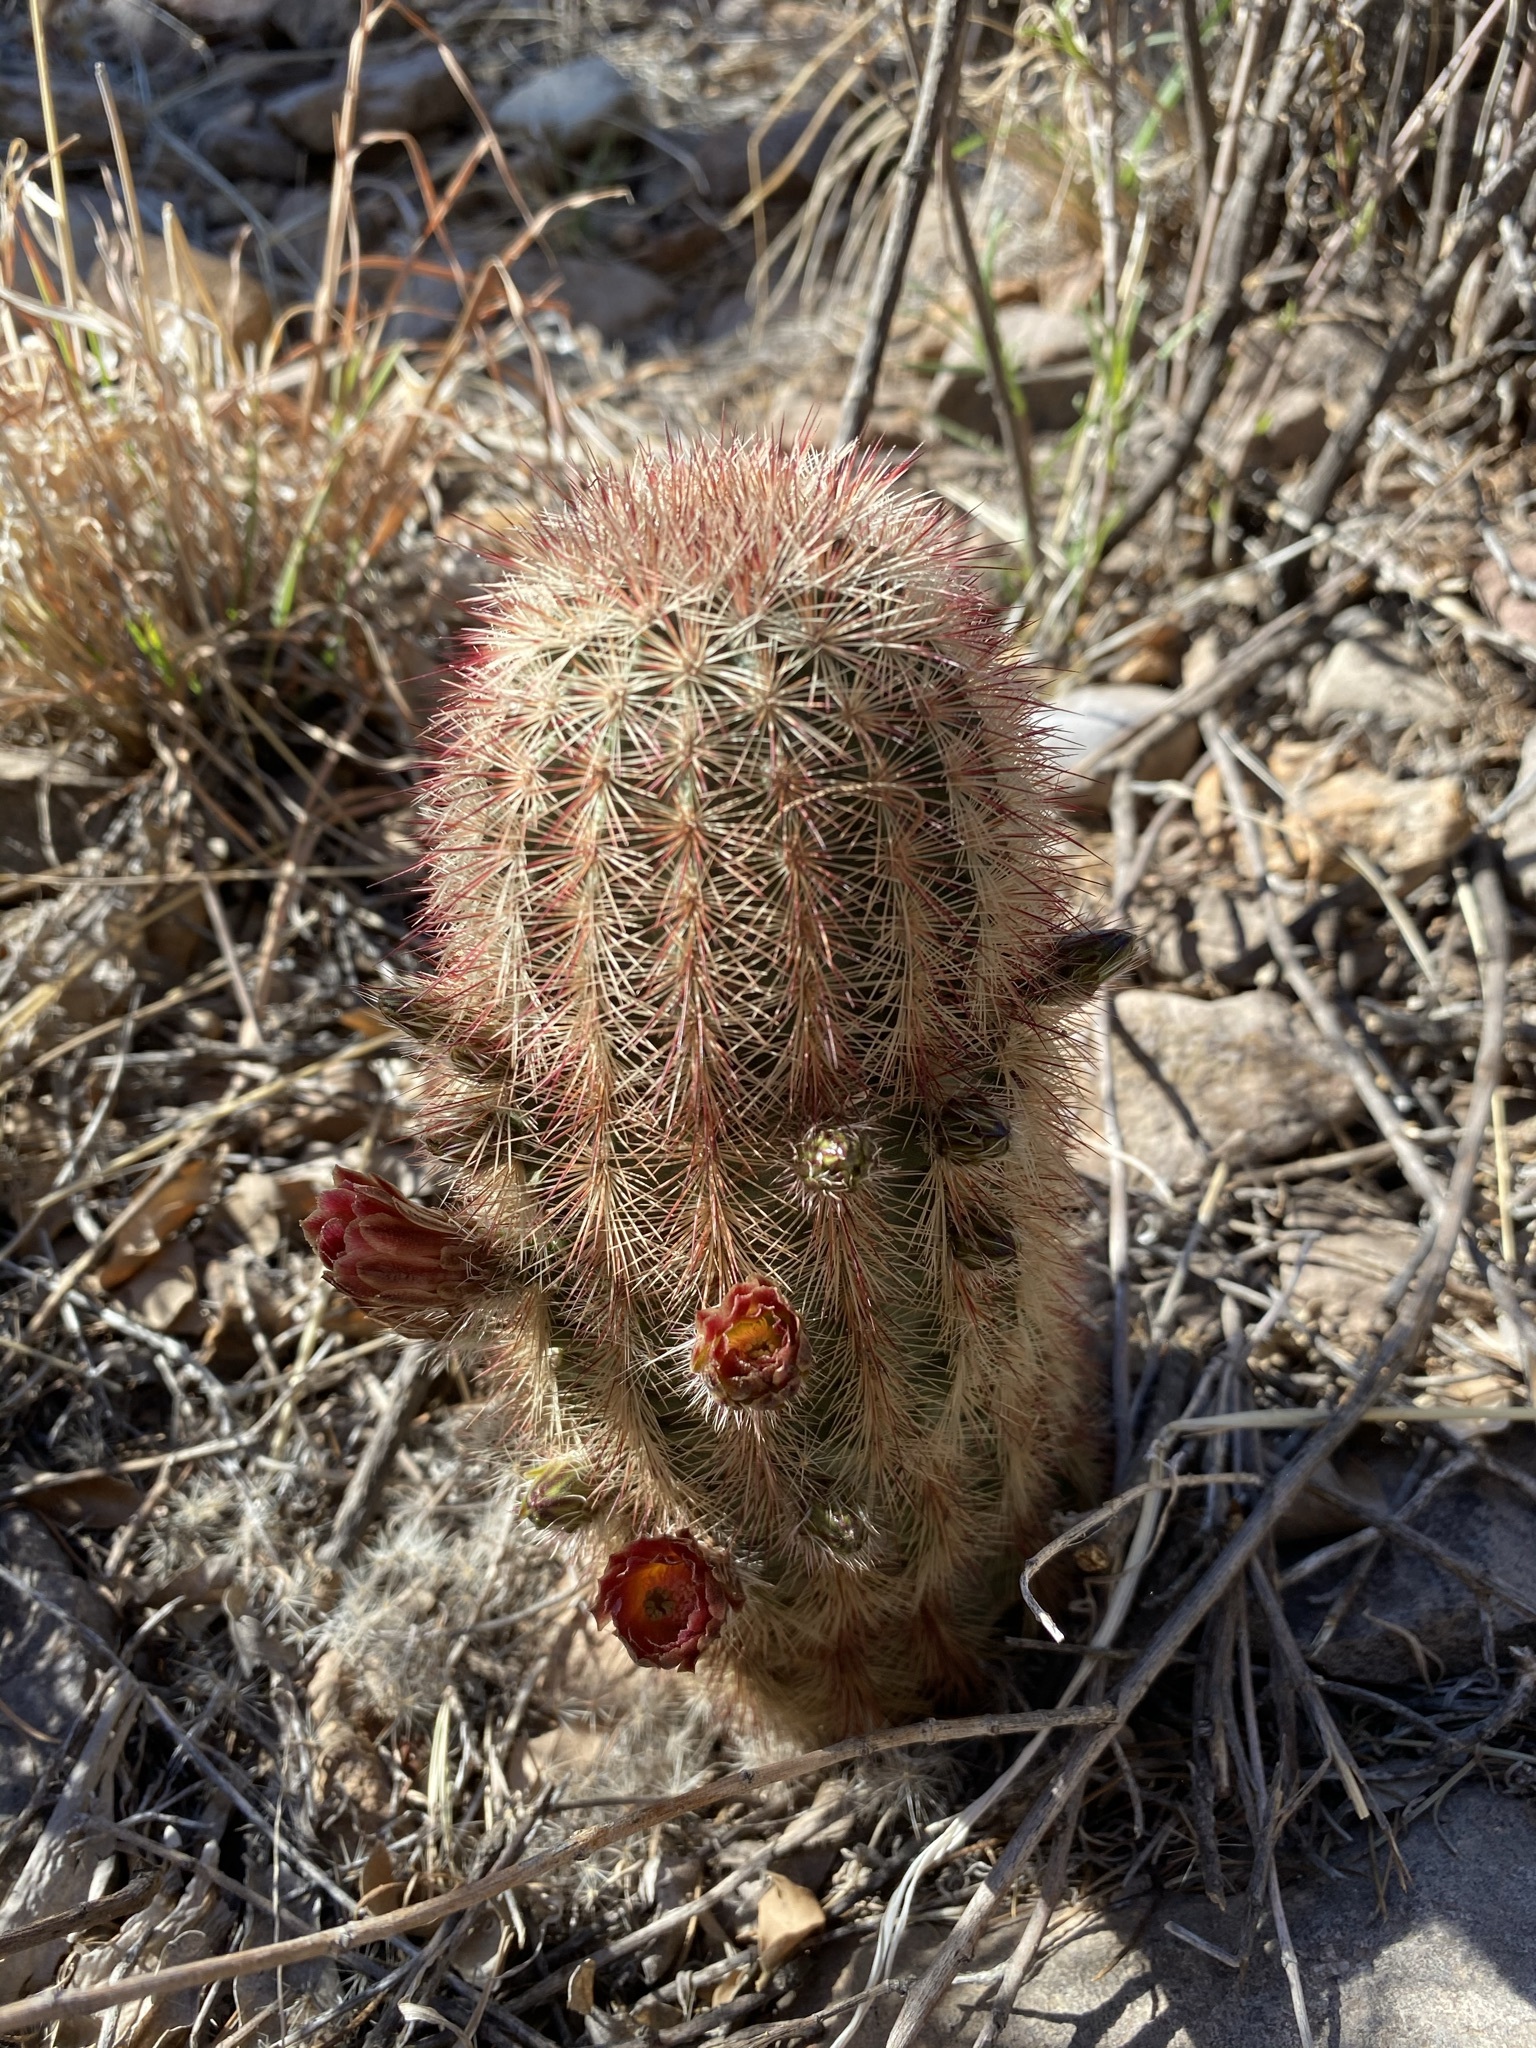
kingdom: Plantae
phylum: Tracheophyta
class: Magnoliopsida
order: Caryophyllales
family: Cactaceae
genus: Echinocereus
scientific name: Echinocereus russanthus
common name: Brownspine hedgehog cactus
